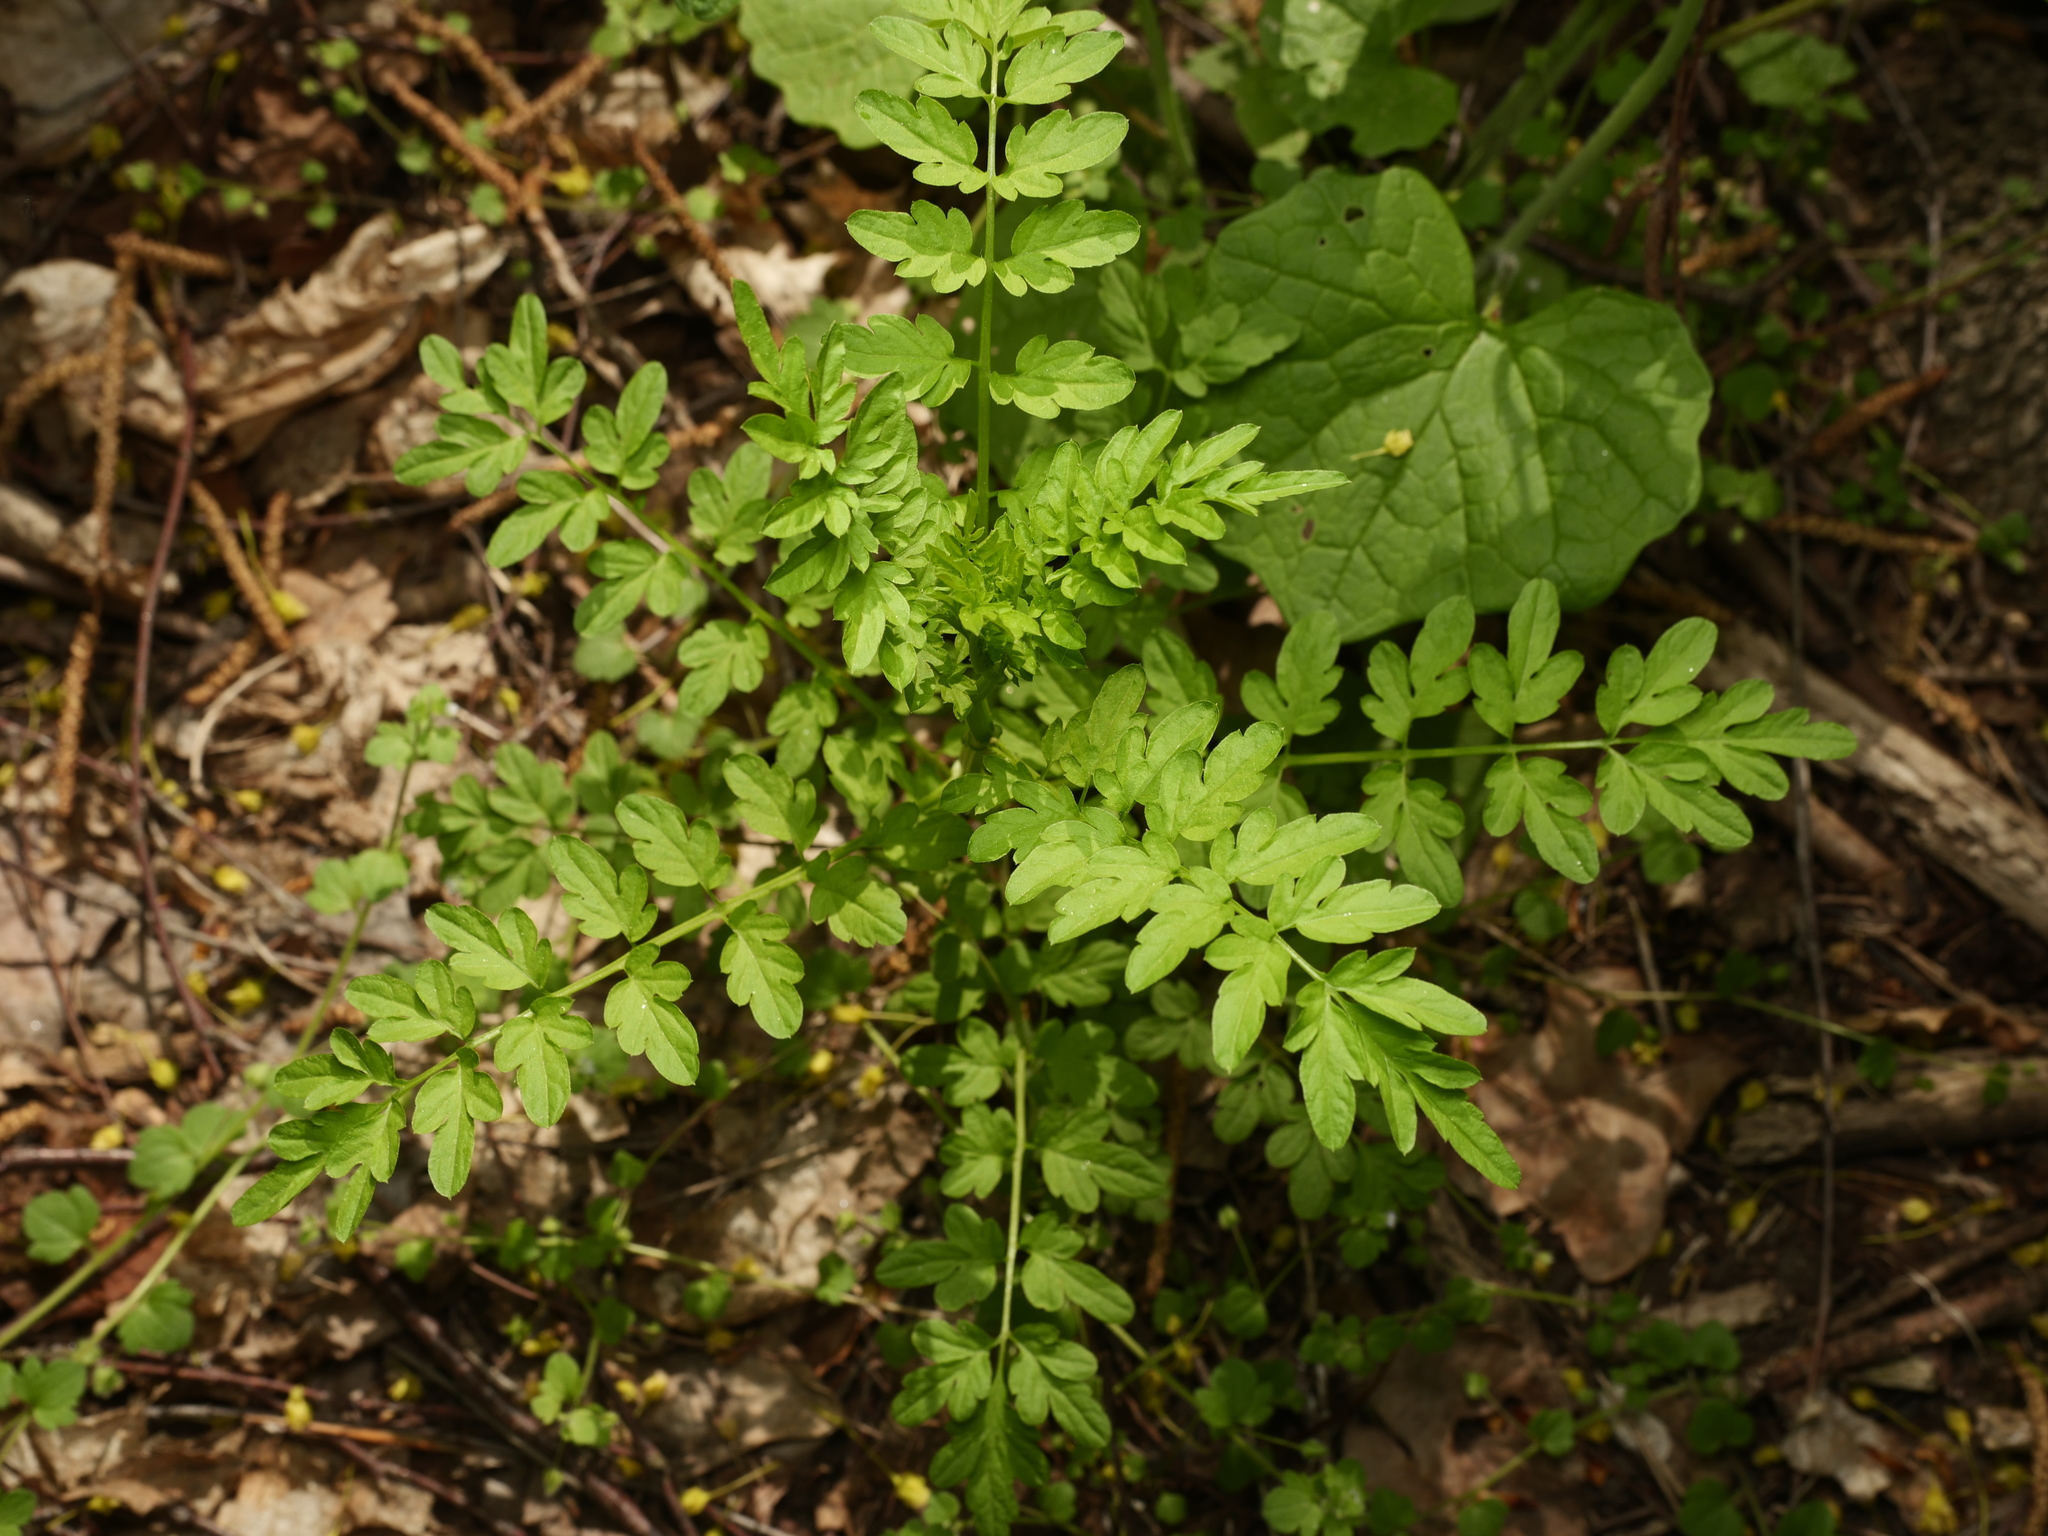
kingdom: Plantae
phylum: Tracheophyta
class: Magnoliopsida
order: Brassicales
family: Brassicaceae
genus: Cardamine
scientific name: Cardamine impatiens
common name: Narrow-leaved bitter-cress
